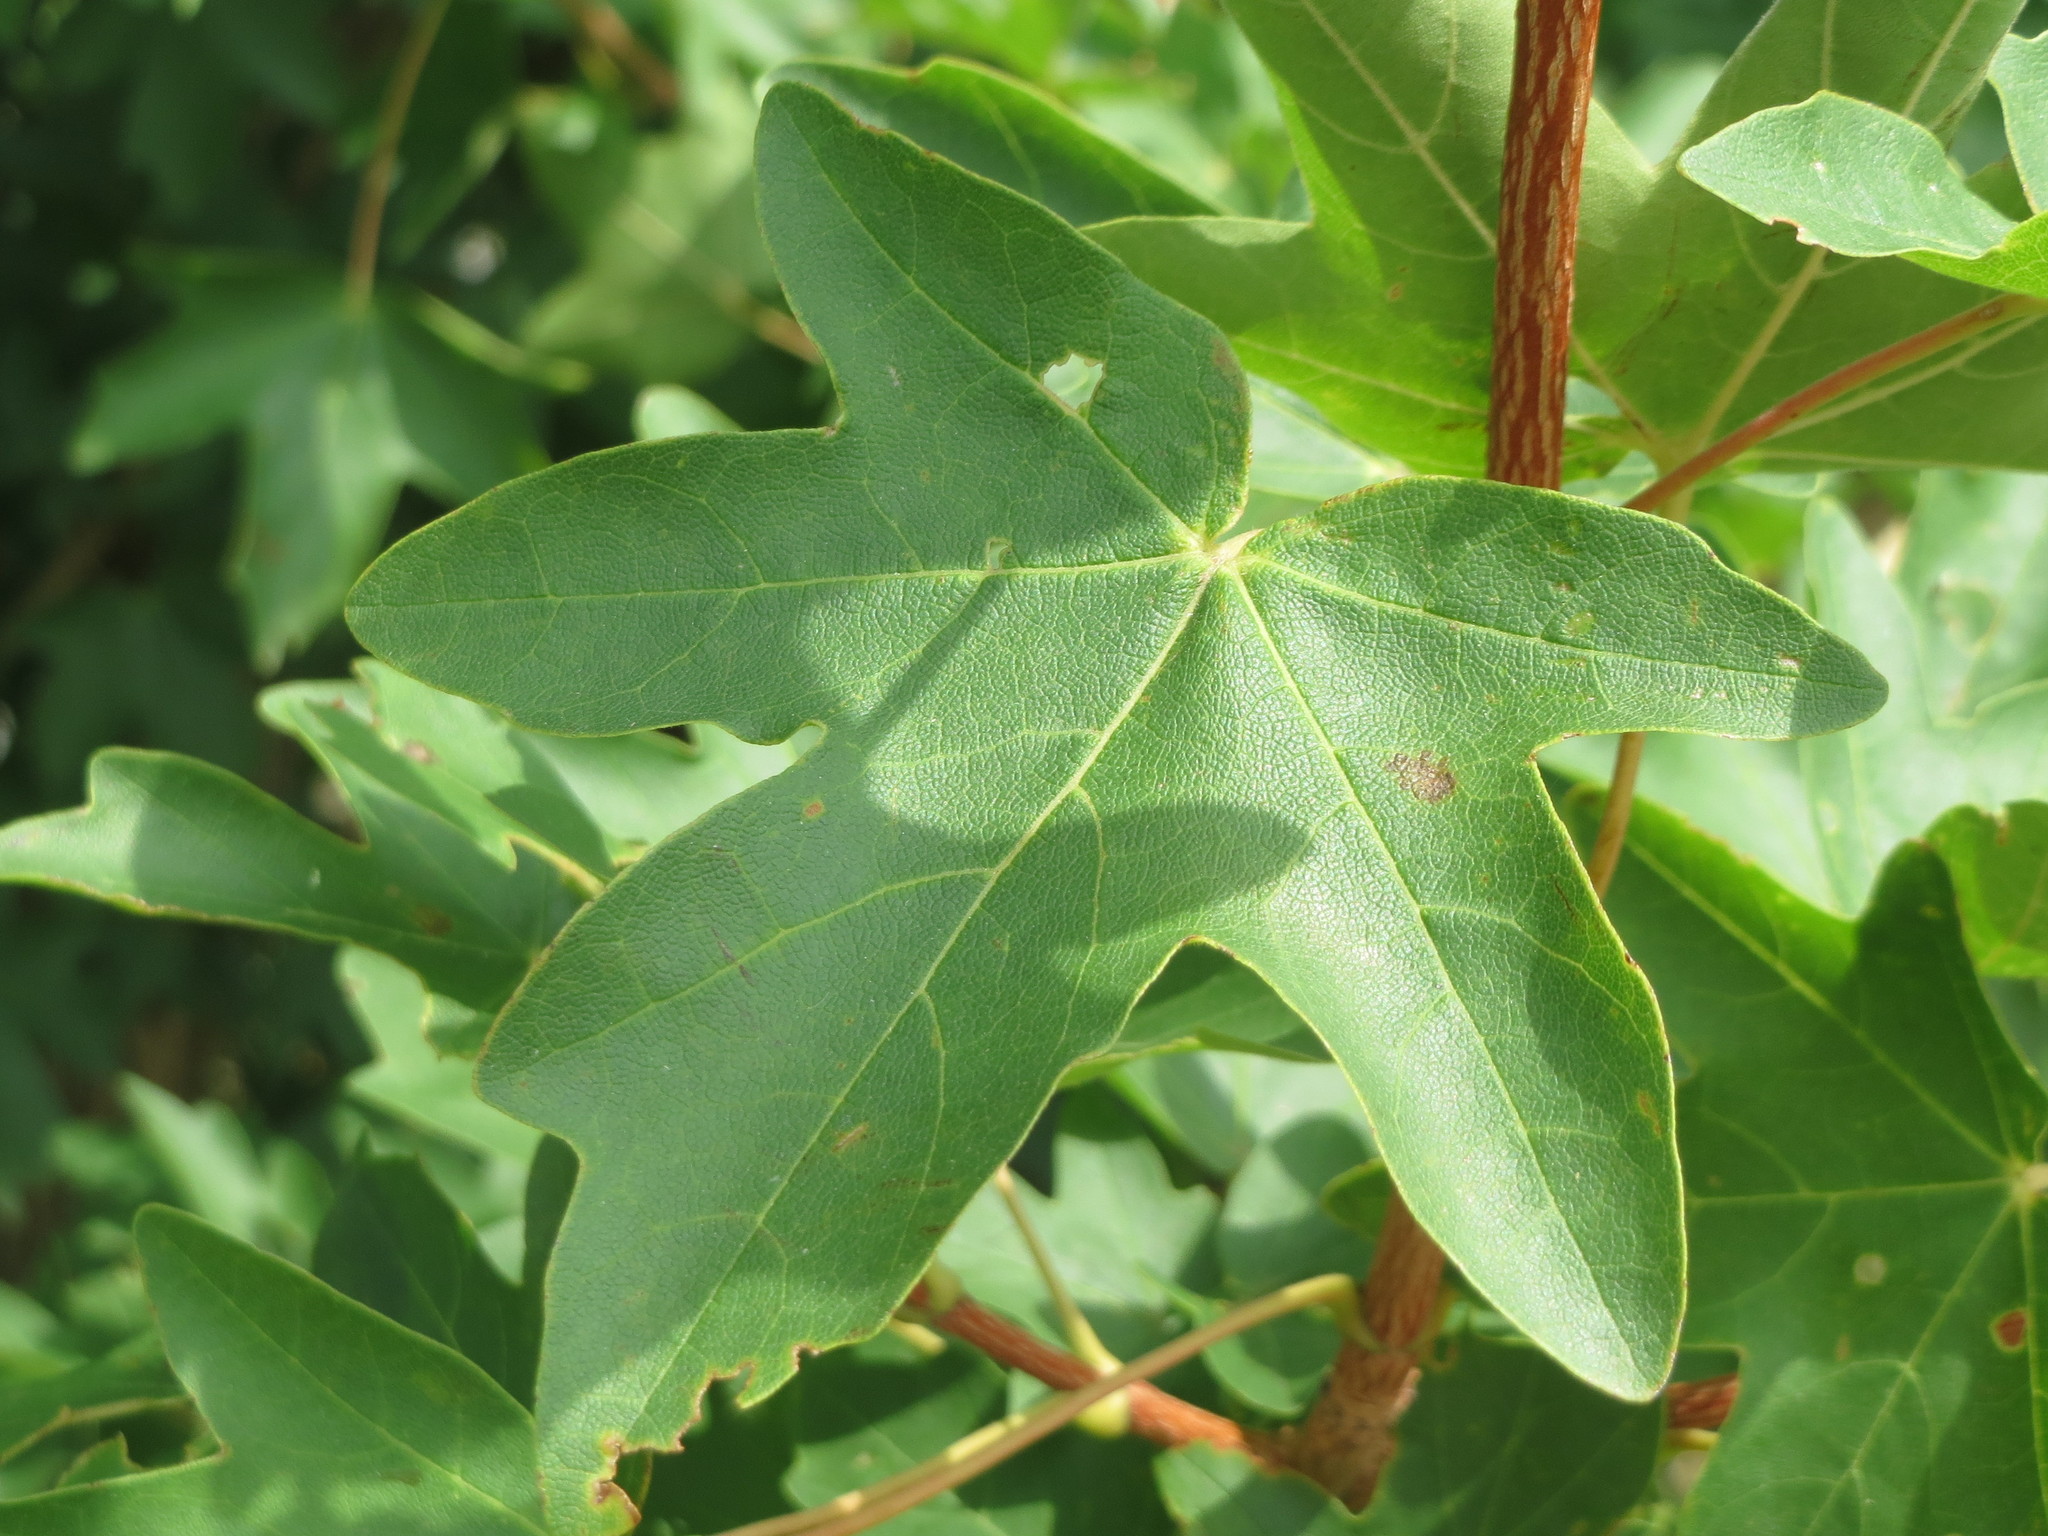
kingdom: Plantae
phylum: Tracheophyta
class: Magnoliopsida
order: Sapindales
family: Sapindaceae
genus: Acer
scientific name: Acer campestre
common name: Field maple
